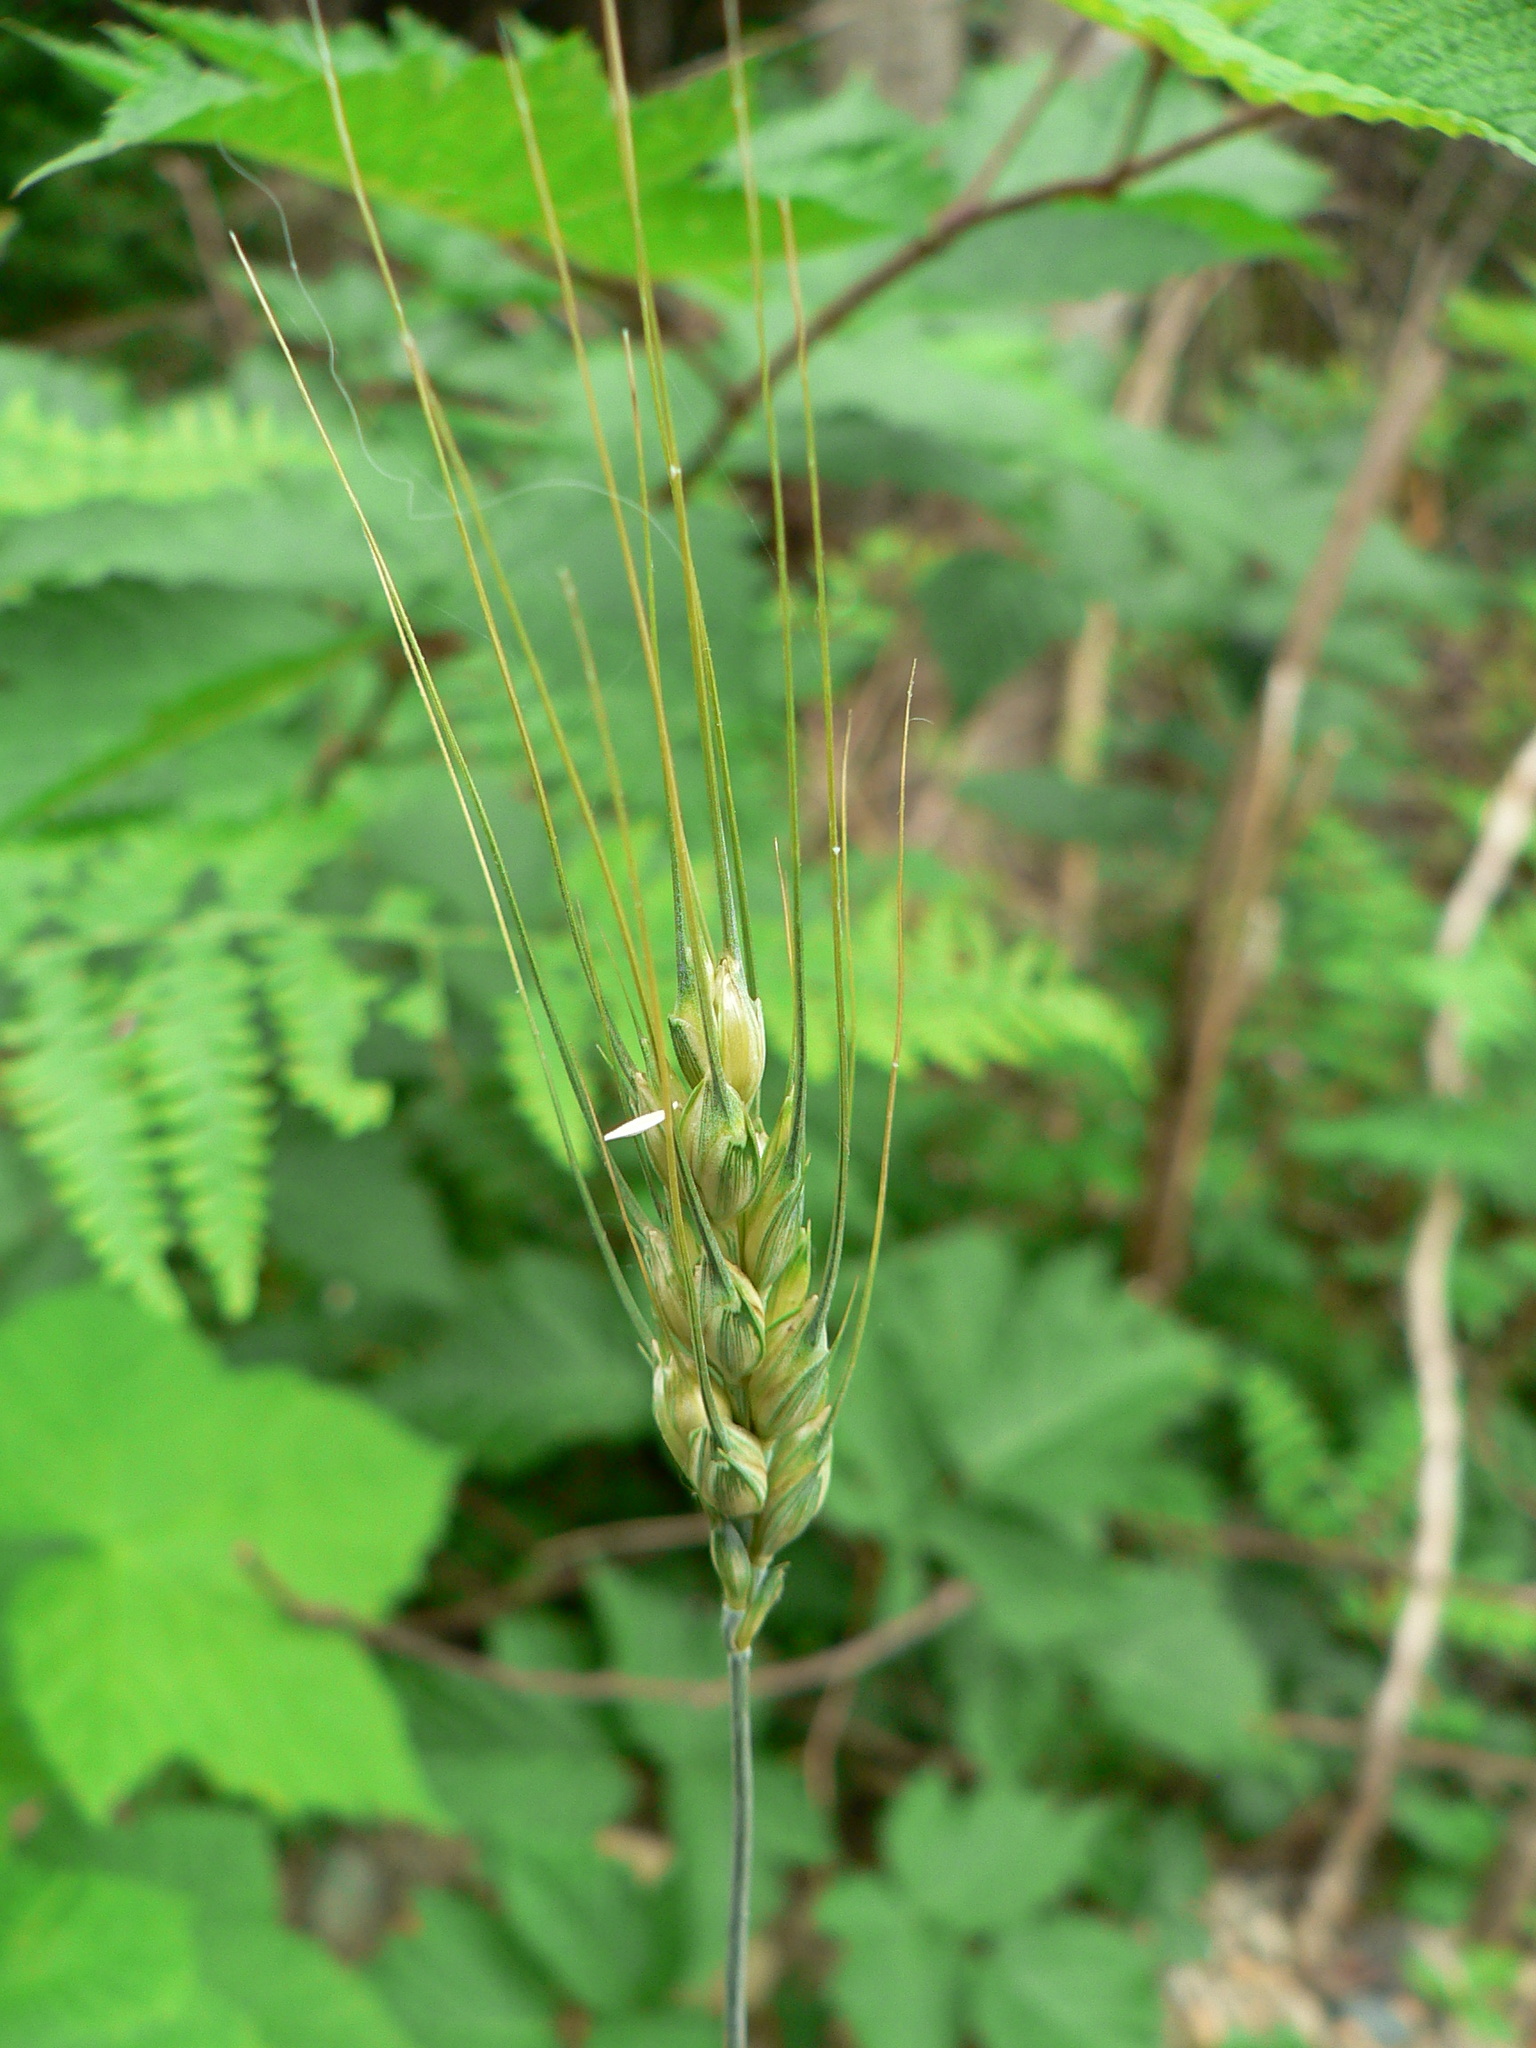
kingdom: Plantae
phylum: Tracheophyta
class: Liliopsida
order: Poales
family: Poaceae
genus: Triticum
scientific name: Triticum aestivum
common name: Common wheat
